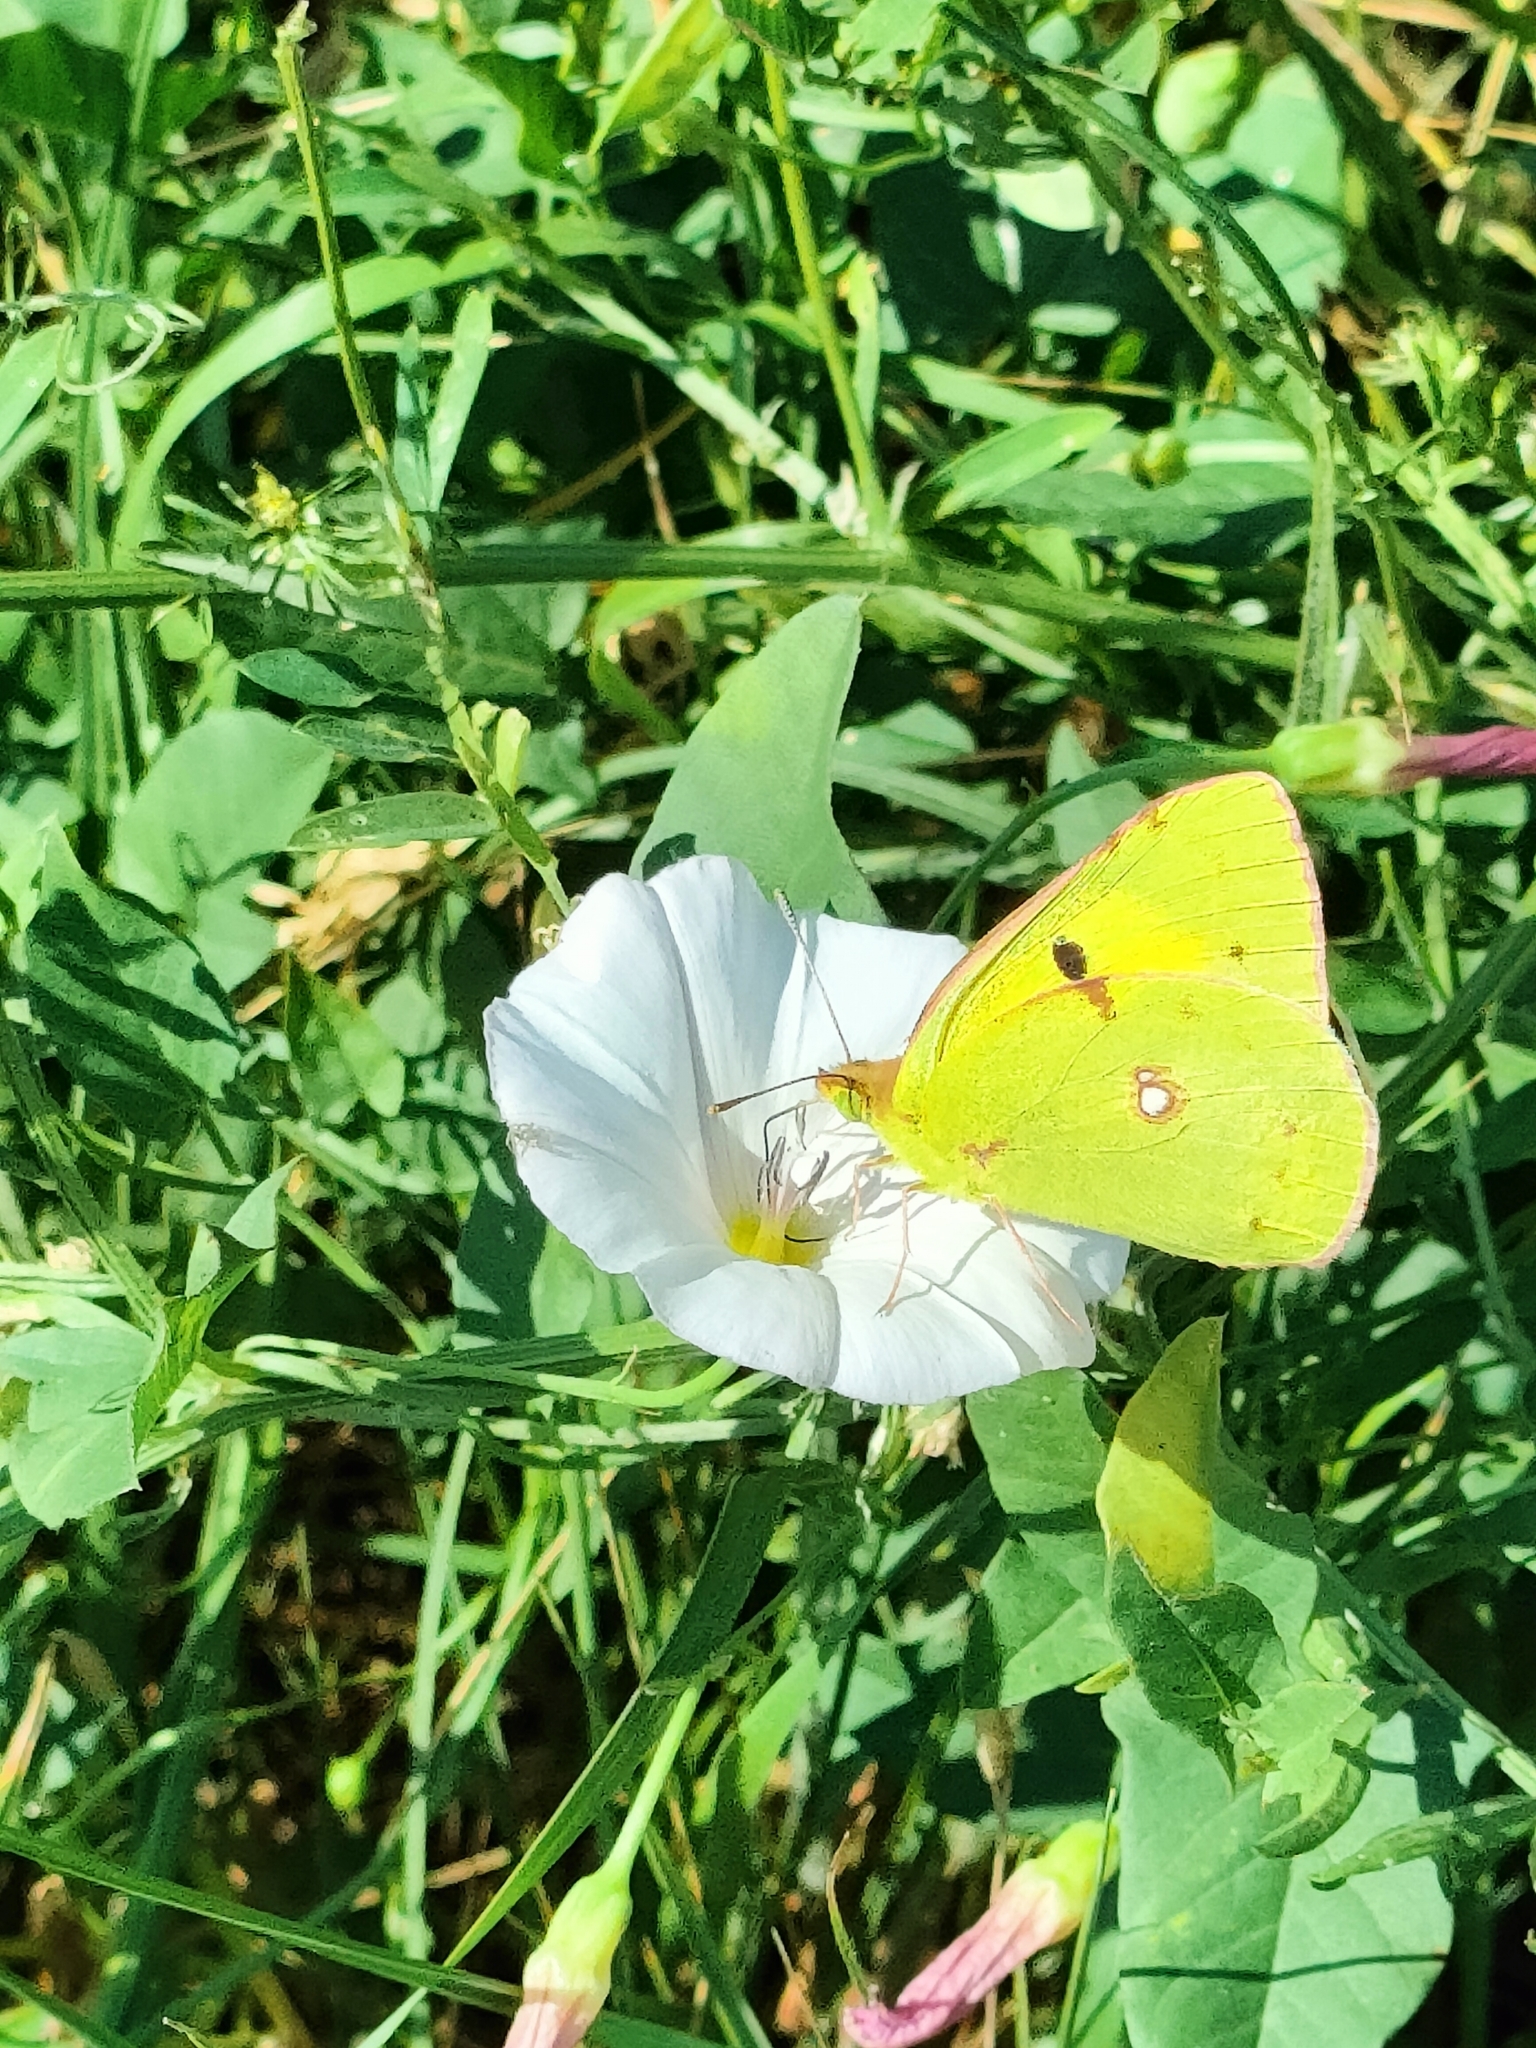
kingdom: Animalia
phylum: Arthropoda
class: Insecta
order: Lepidoptera
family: Pieridae
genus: Colias
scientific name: Colias croceus
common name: Clouded yellow
